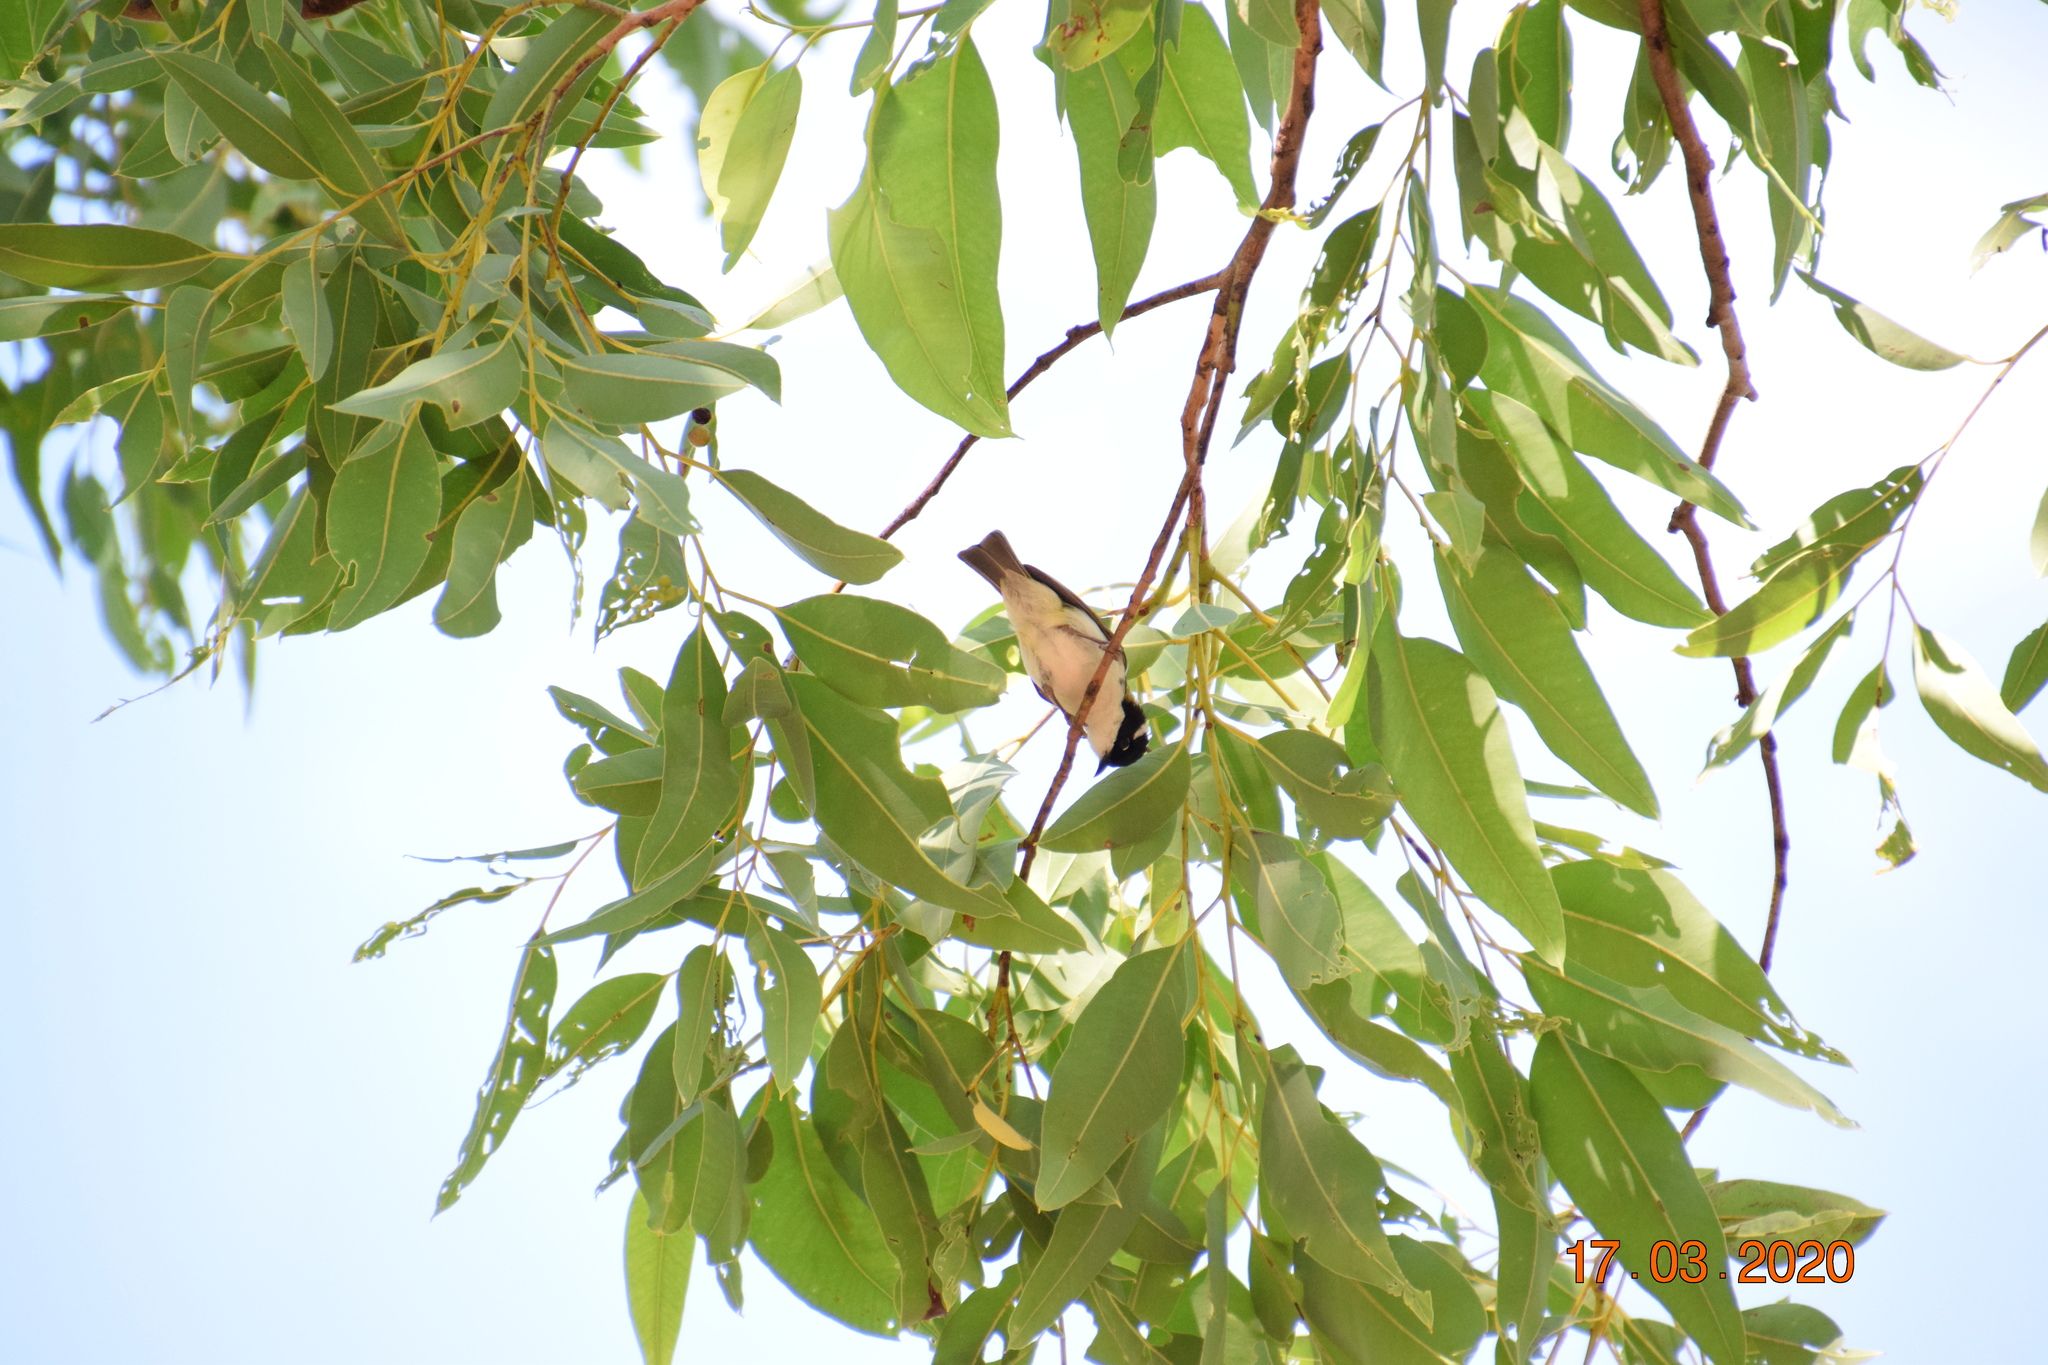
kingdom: Animalia
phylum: Chordata
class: Aves
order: Passeriformes
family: Meliphagidae
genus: Melithreptus
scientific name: Melithreptus albogularis
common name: White-throated honeyeater
